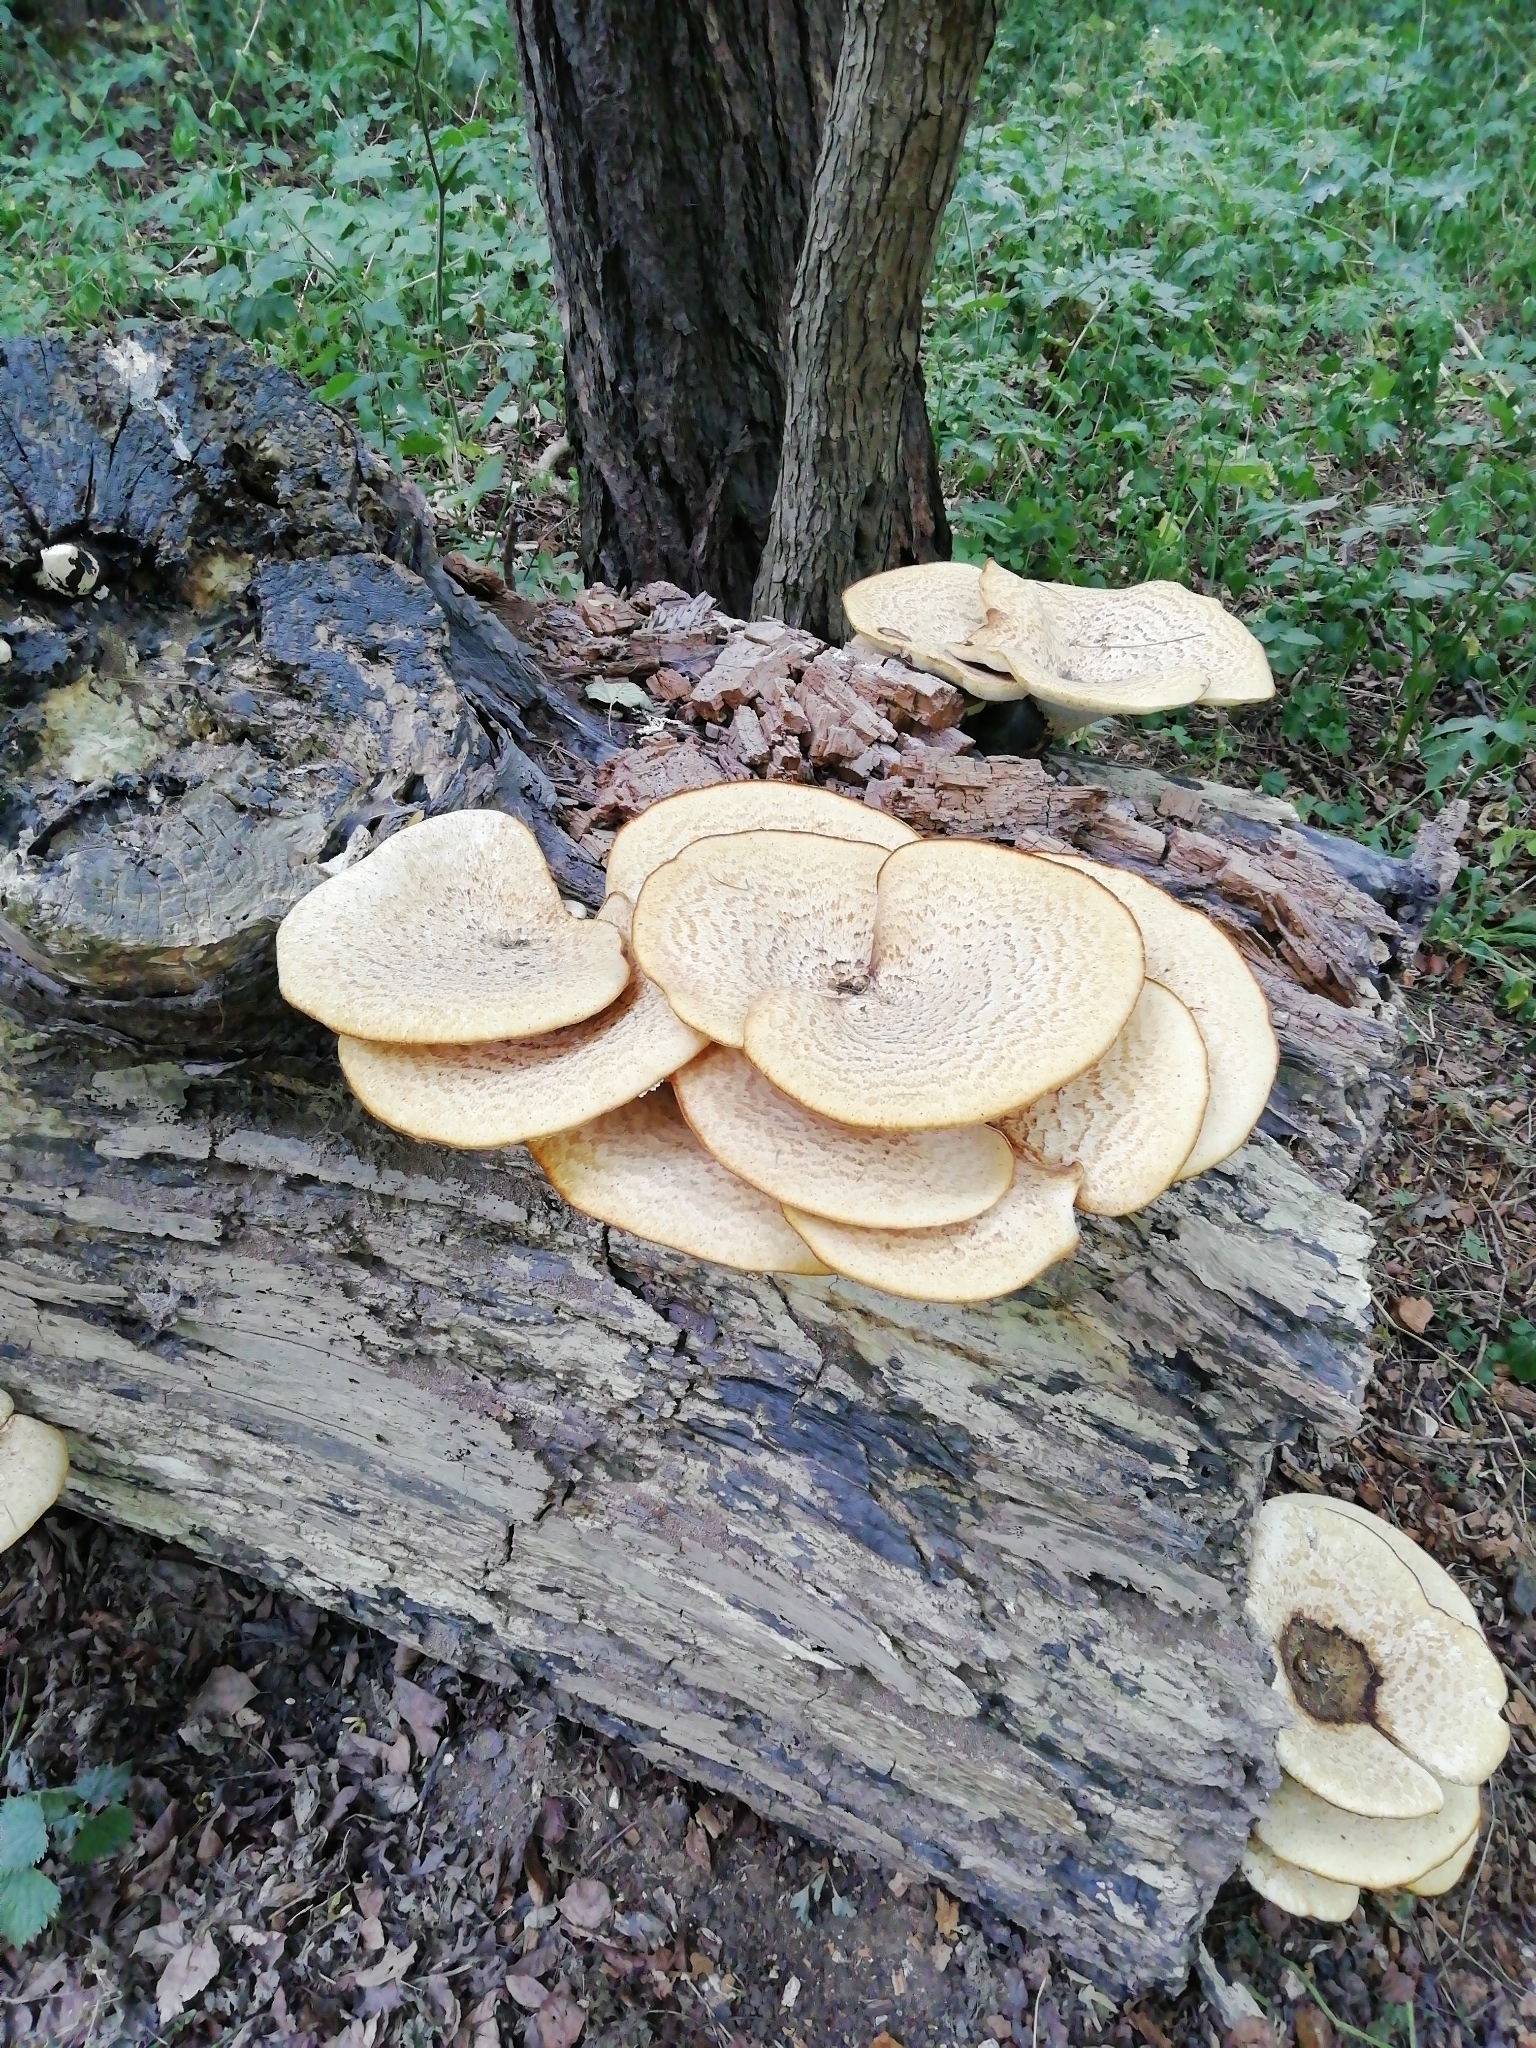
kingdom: Fungi
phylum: Basidiomycota
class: Agaricomycetes
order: Polyporales
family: Polyporaceae
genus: Cerioporus
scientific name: Cerioporus squamosus
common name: Dryad's saddle
